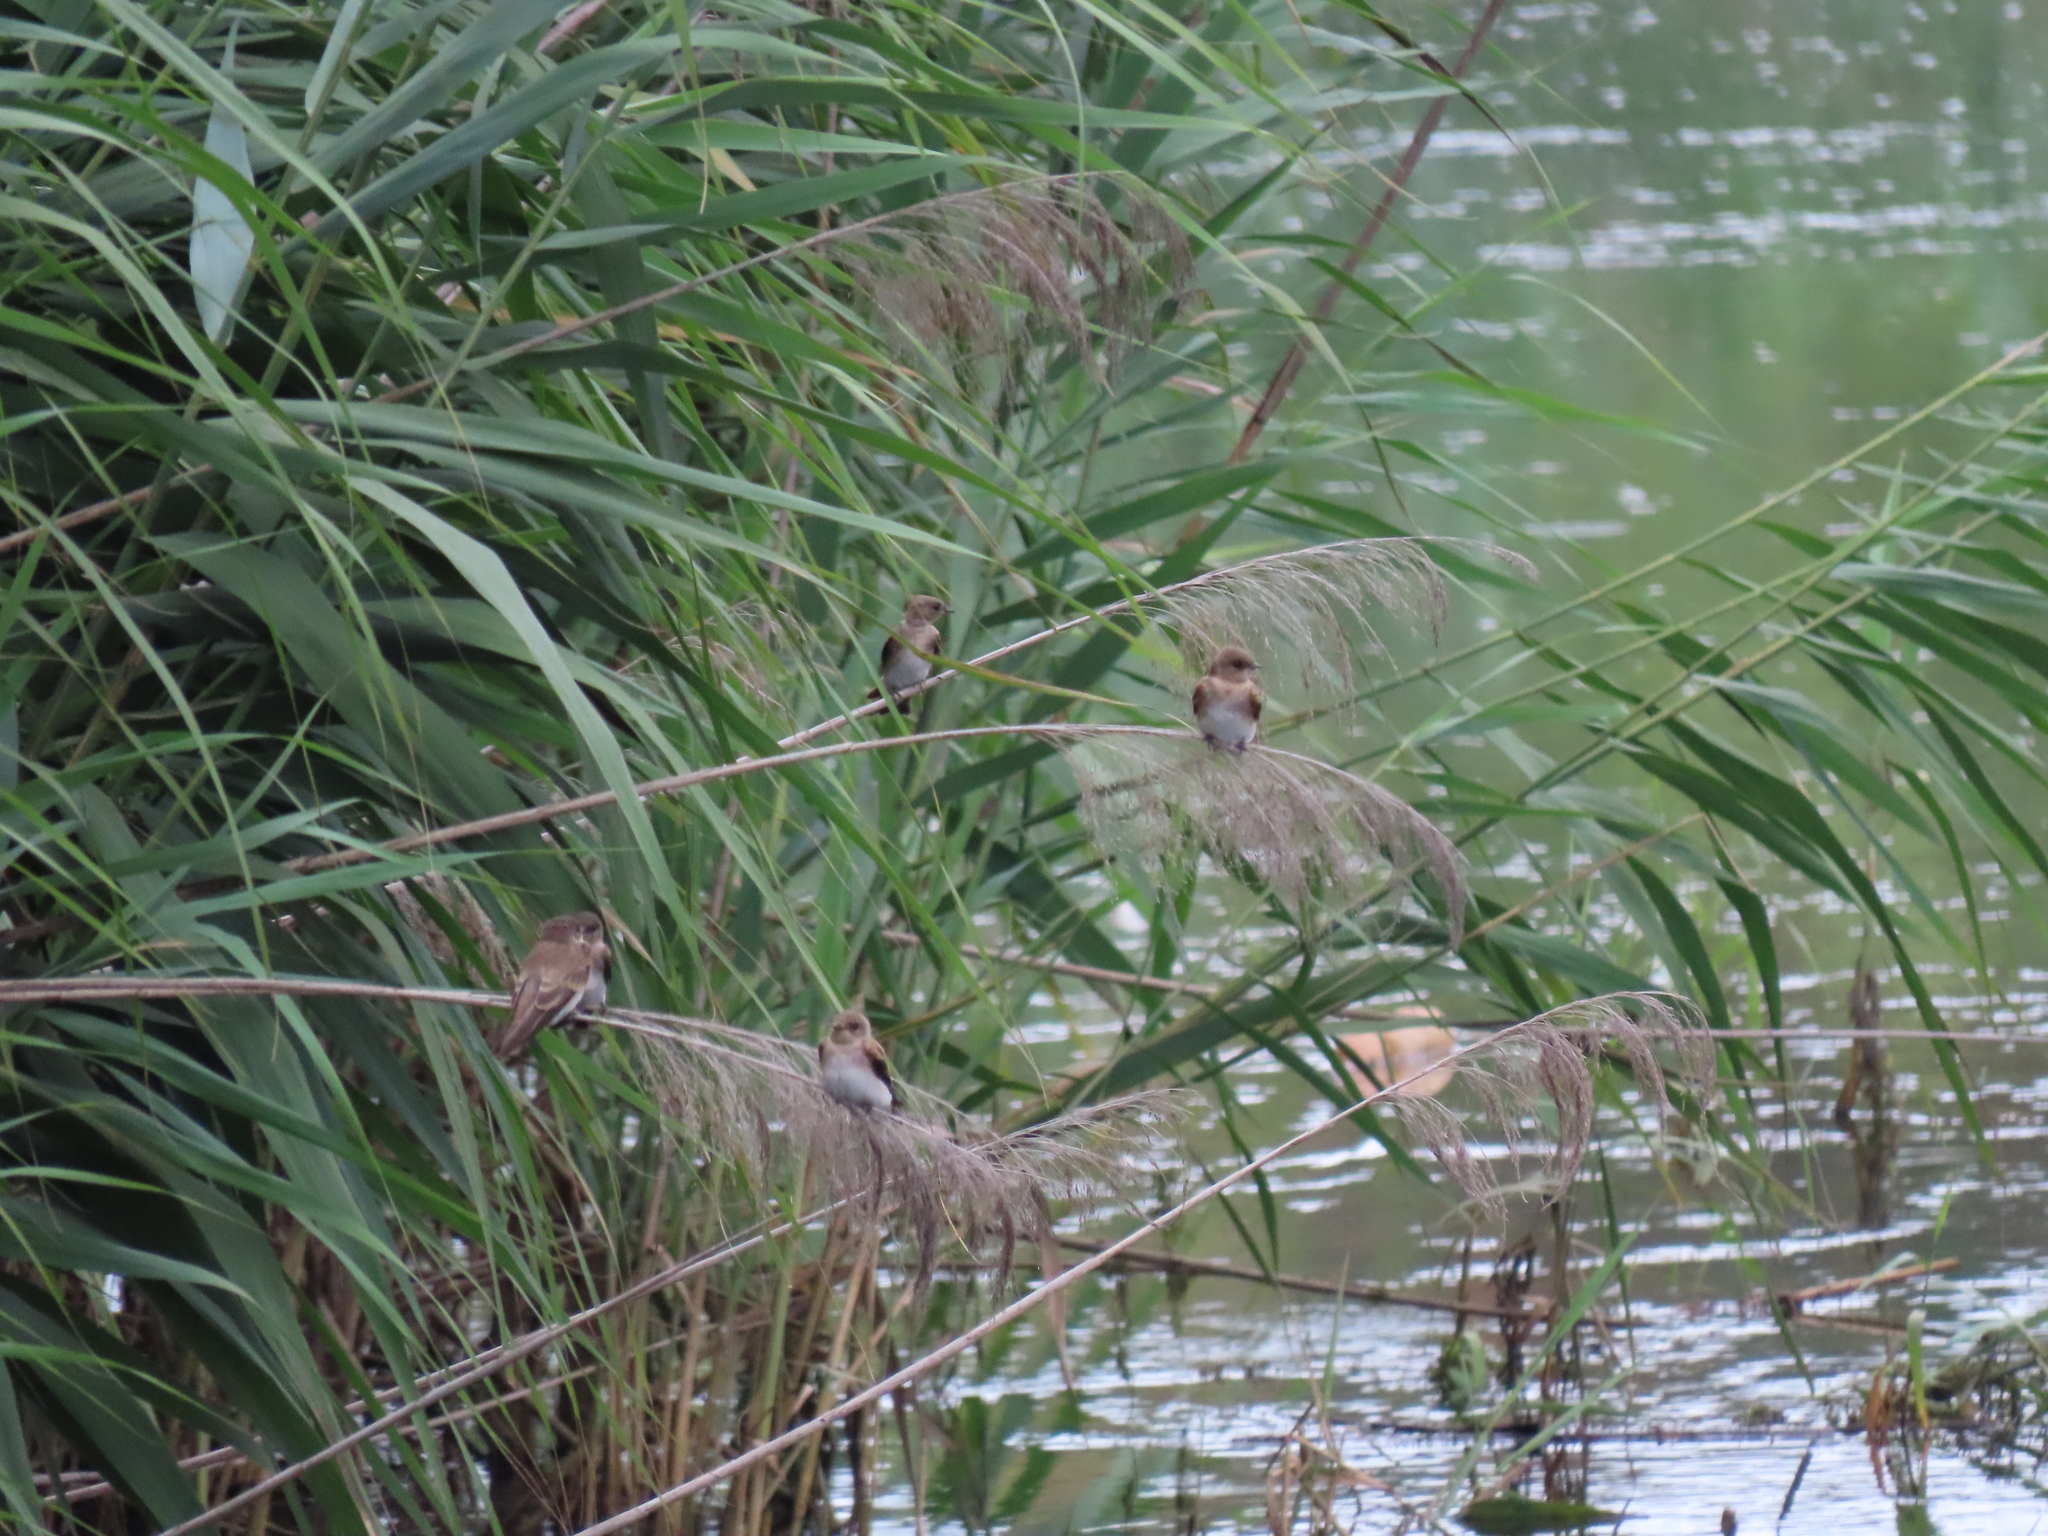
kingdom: Animalia
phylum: Chordata
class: Aves
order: Passeriformes
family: Hirundinidae
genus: Stelgidopteryx
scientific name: Stelgidopteryx serripennis
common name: Northern rough-winged swallow
